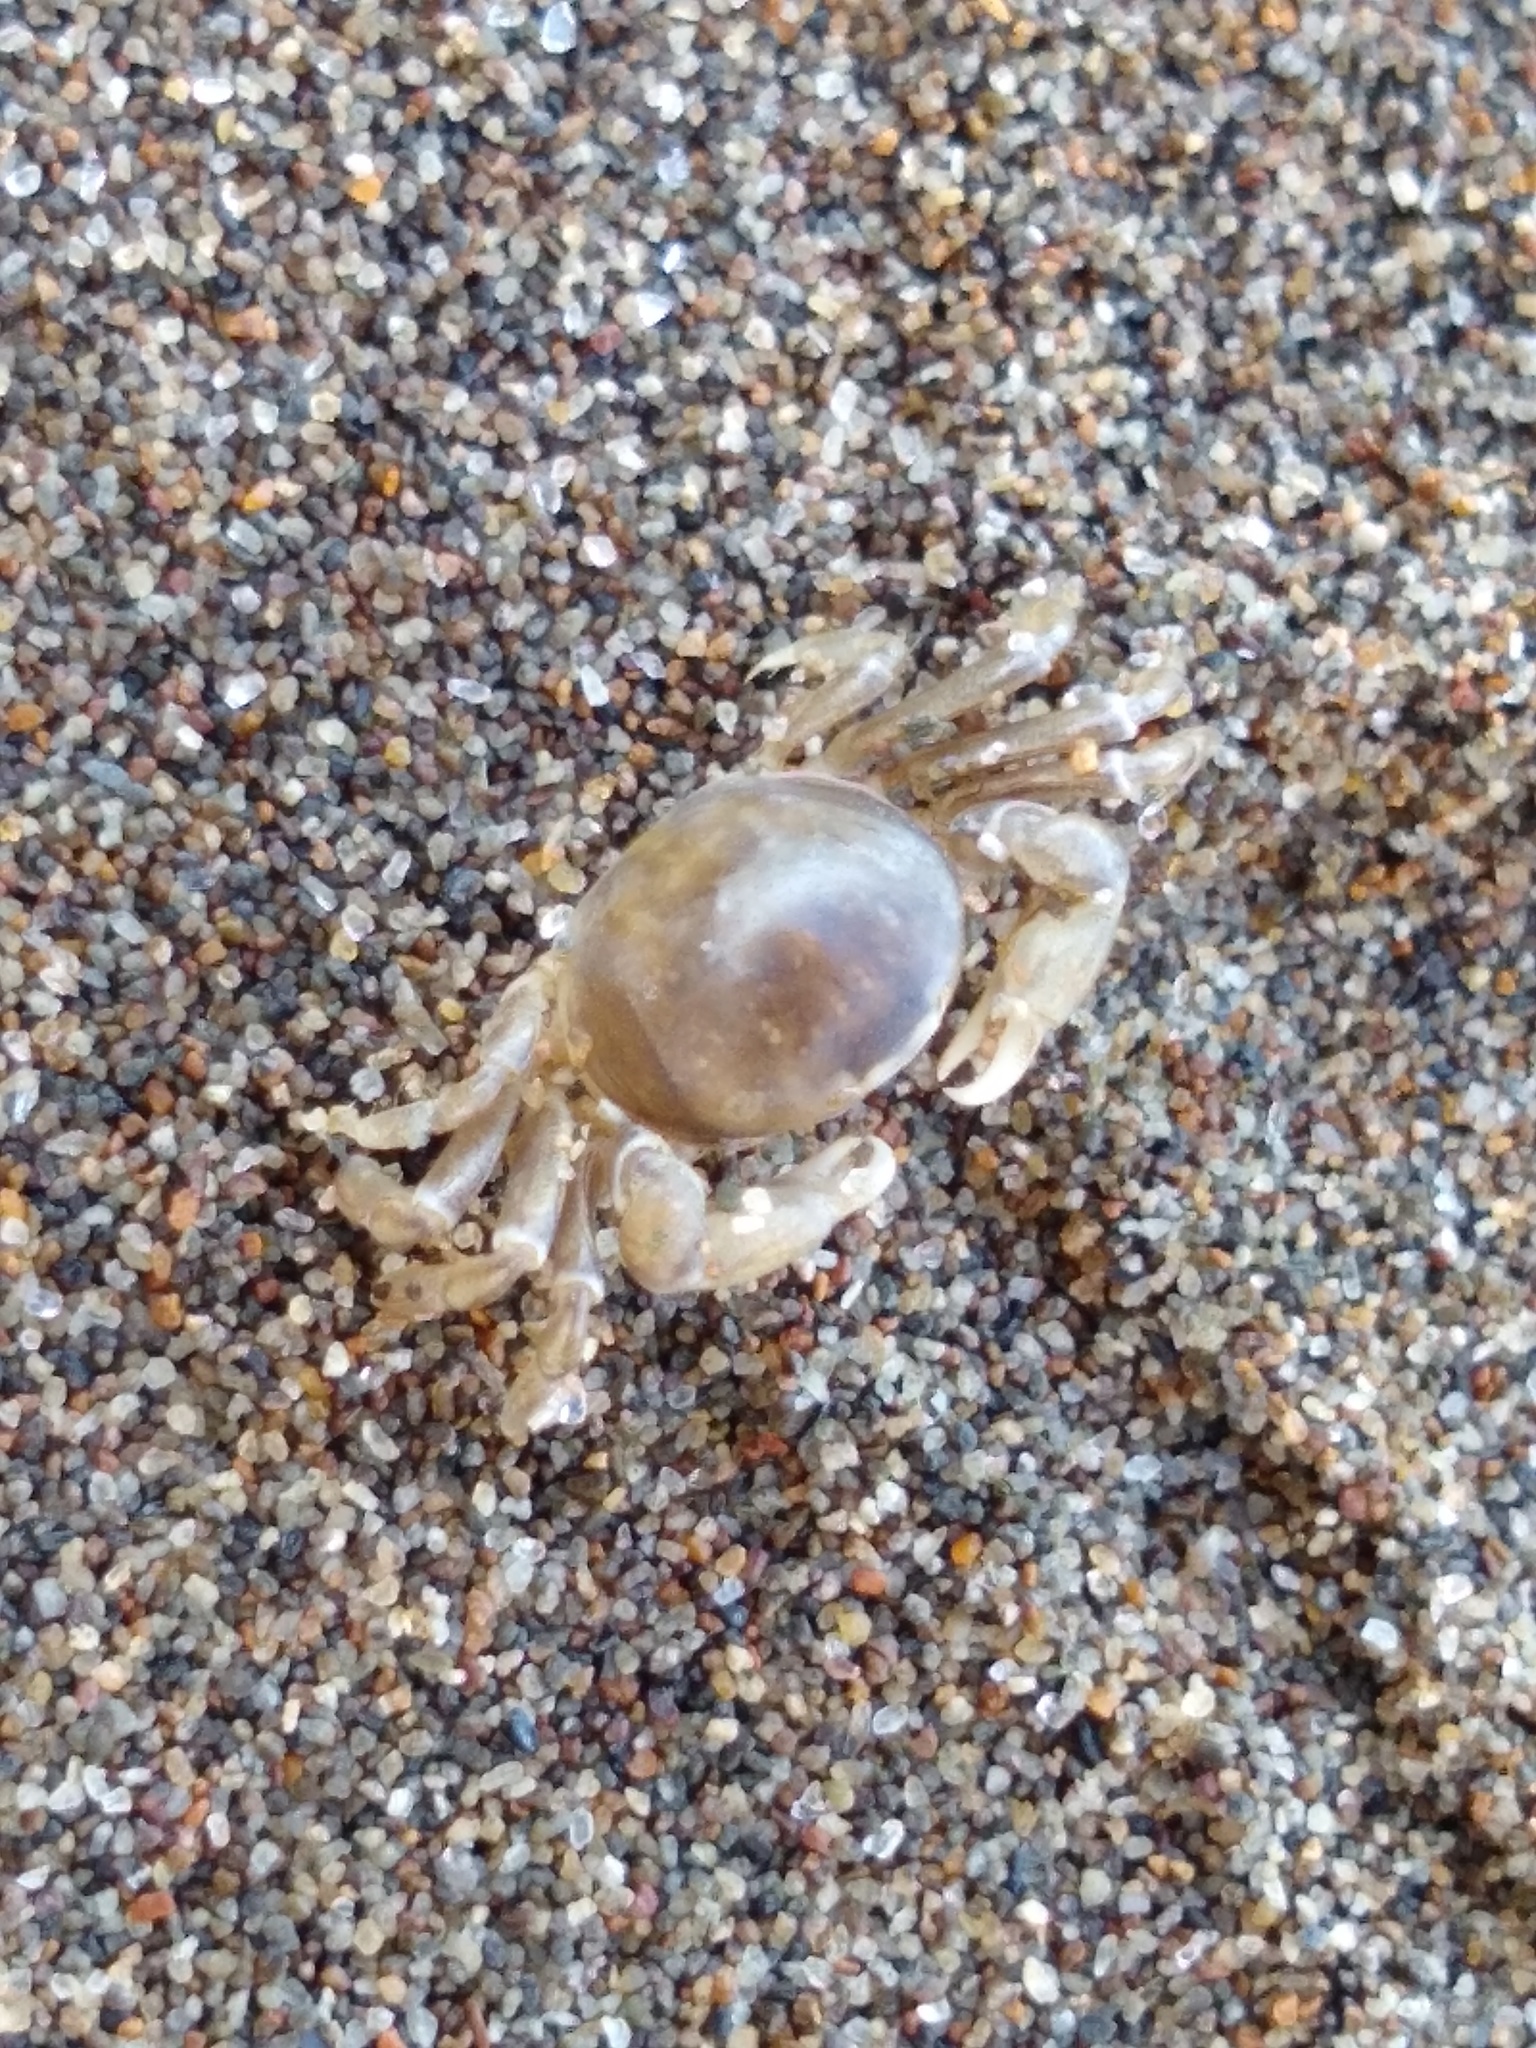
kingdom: Animalia
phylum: Arthropoda
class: Malacostraca
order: Decapoda
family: Pinnotheridae
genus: Nepinnotheres
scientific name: Nepinnotheres novaezelandiae
